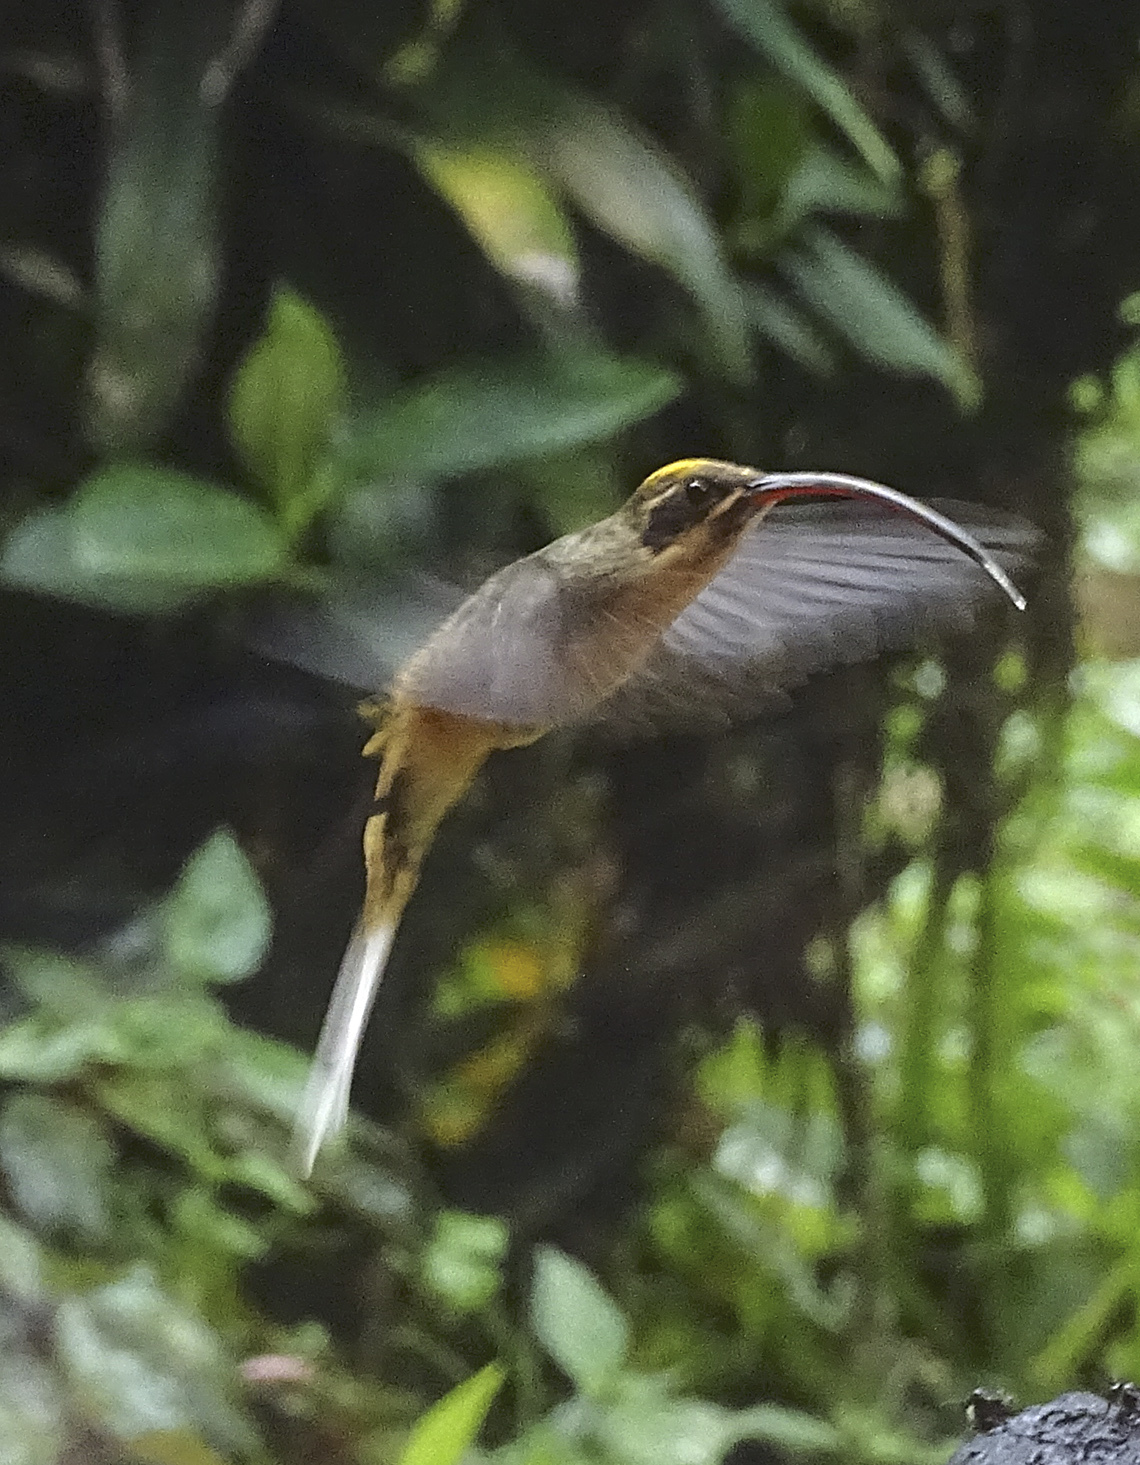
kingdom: Animalia
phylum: Chordata
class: Aves
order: Apodiformes
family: Trochilidae
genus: Phaethornis
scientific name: Phaethornis syrmatophorus
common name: Tawny-bellied hermit
